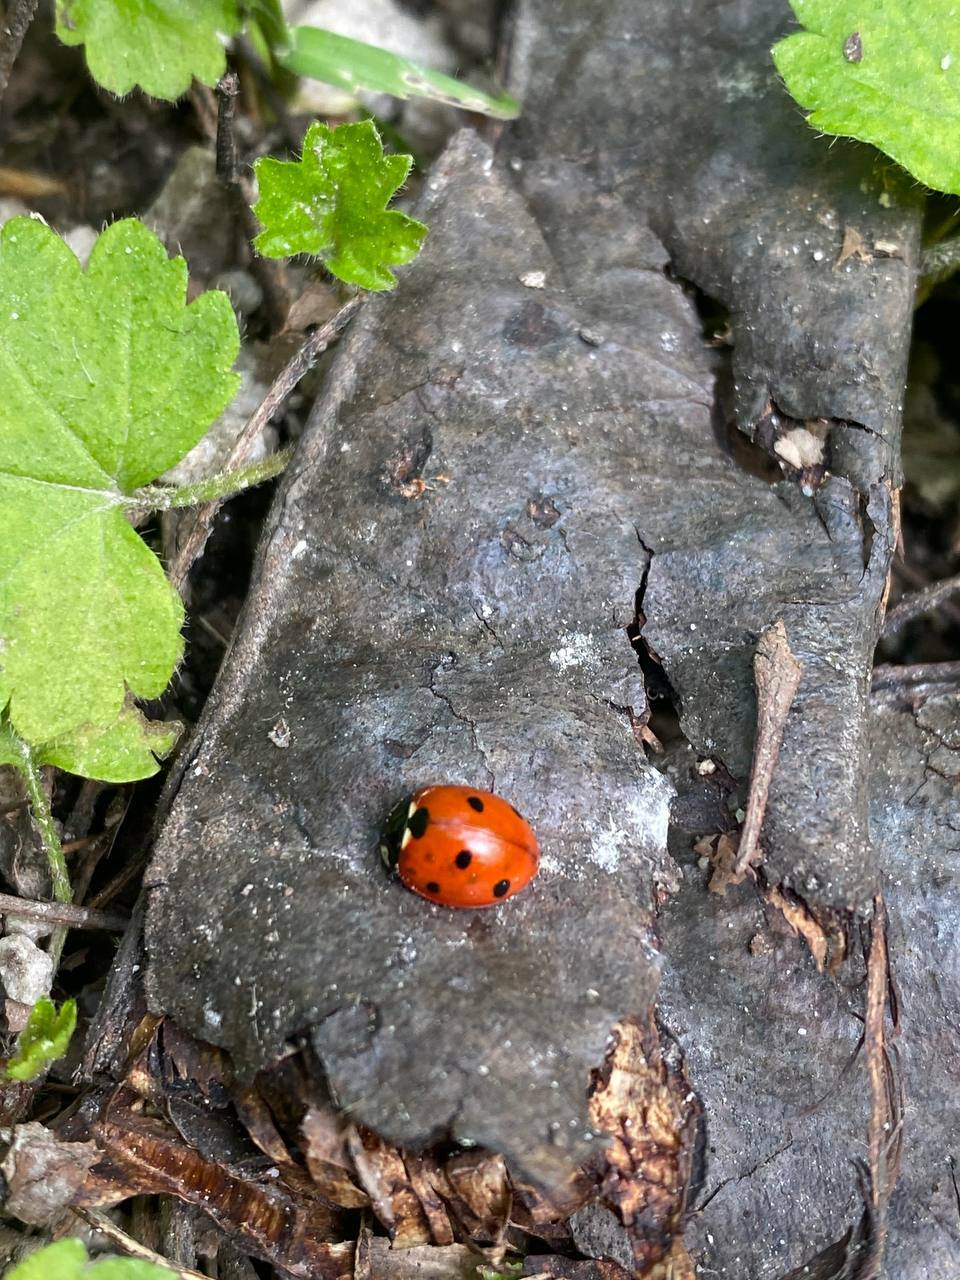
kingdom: Animalia
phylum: Arthropoda
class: Insecta
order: Coleoptera
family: Coccinellidae
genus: Coccinella
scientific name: Coccinella septempunctata
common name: Sevenspotted lady beetle
